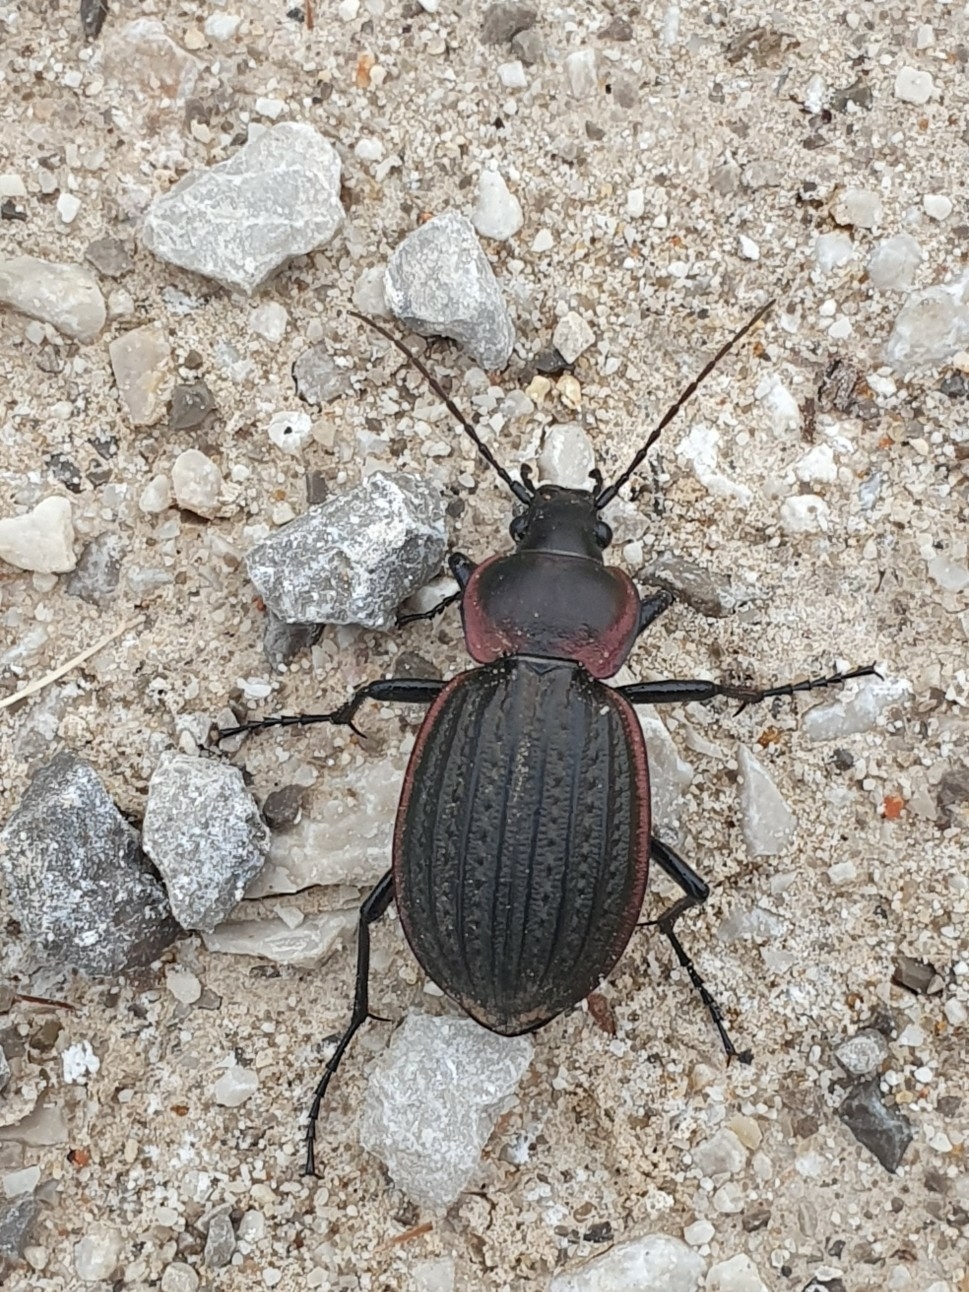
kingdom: Animalia
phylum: Arthropoda
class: Insecta
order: Coleoptera
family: Carabidae
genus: Carabus
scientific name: Carabus faminii
